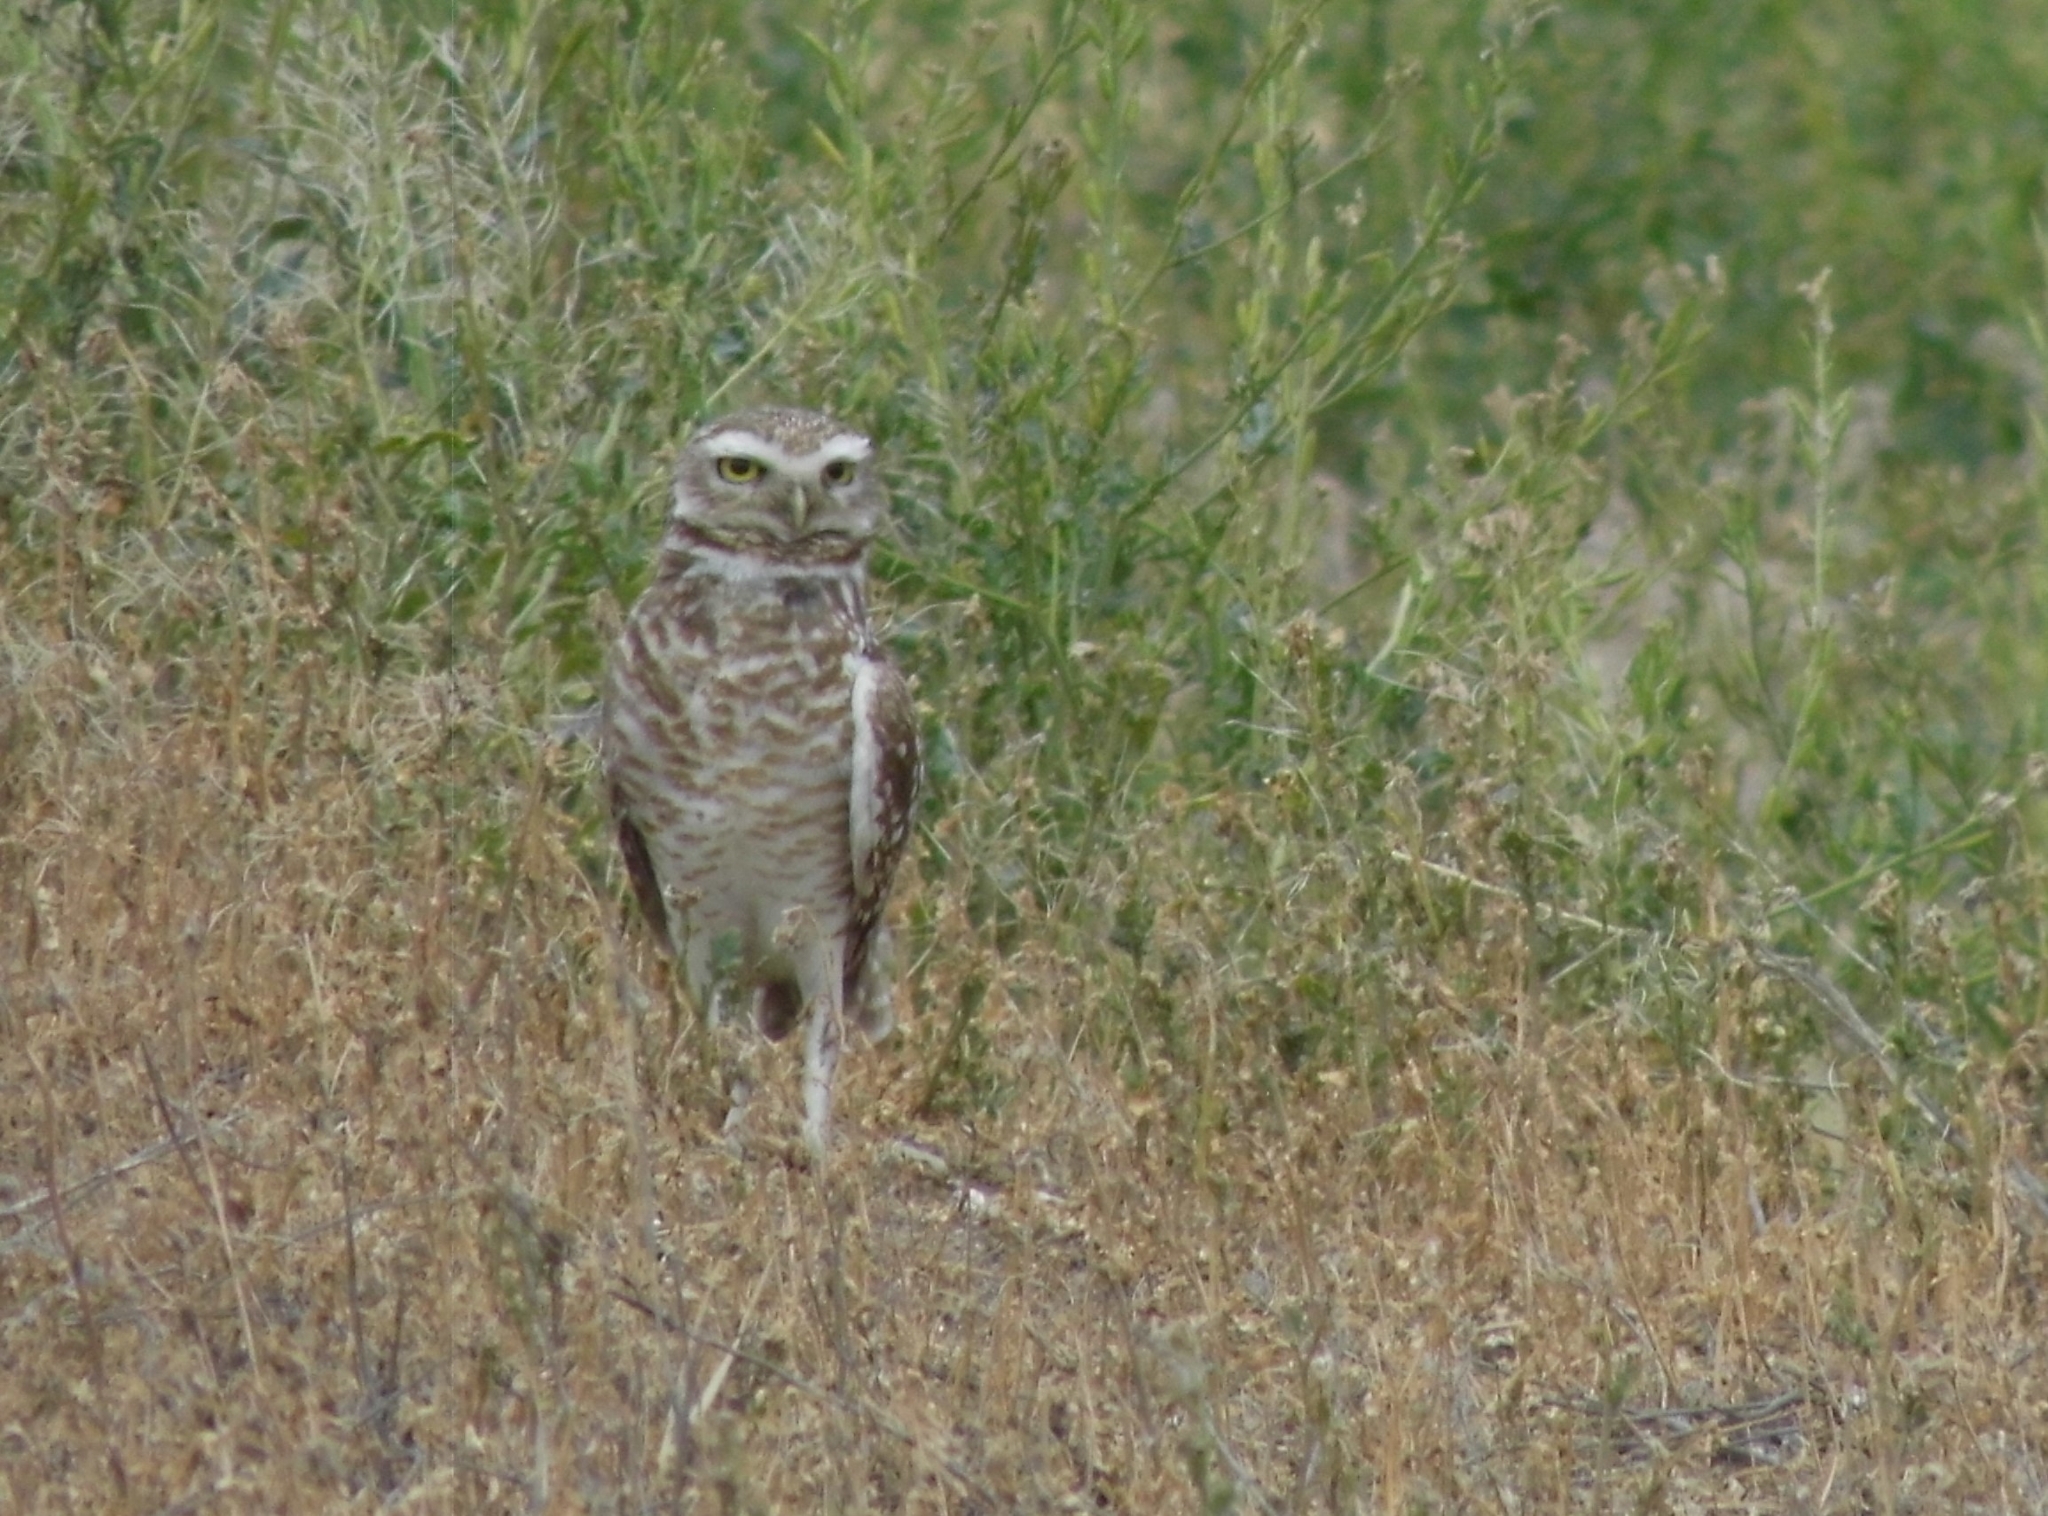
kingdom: Animalia
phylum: Chordata
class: Aves
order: Strigiformes
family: Strigidae
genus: Athene
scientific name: Athene cunicularia
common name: Burrowing owl
